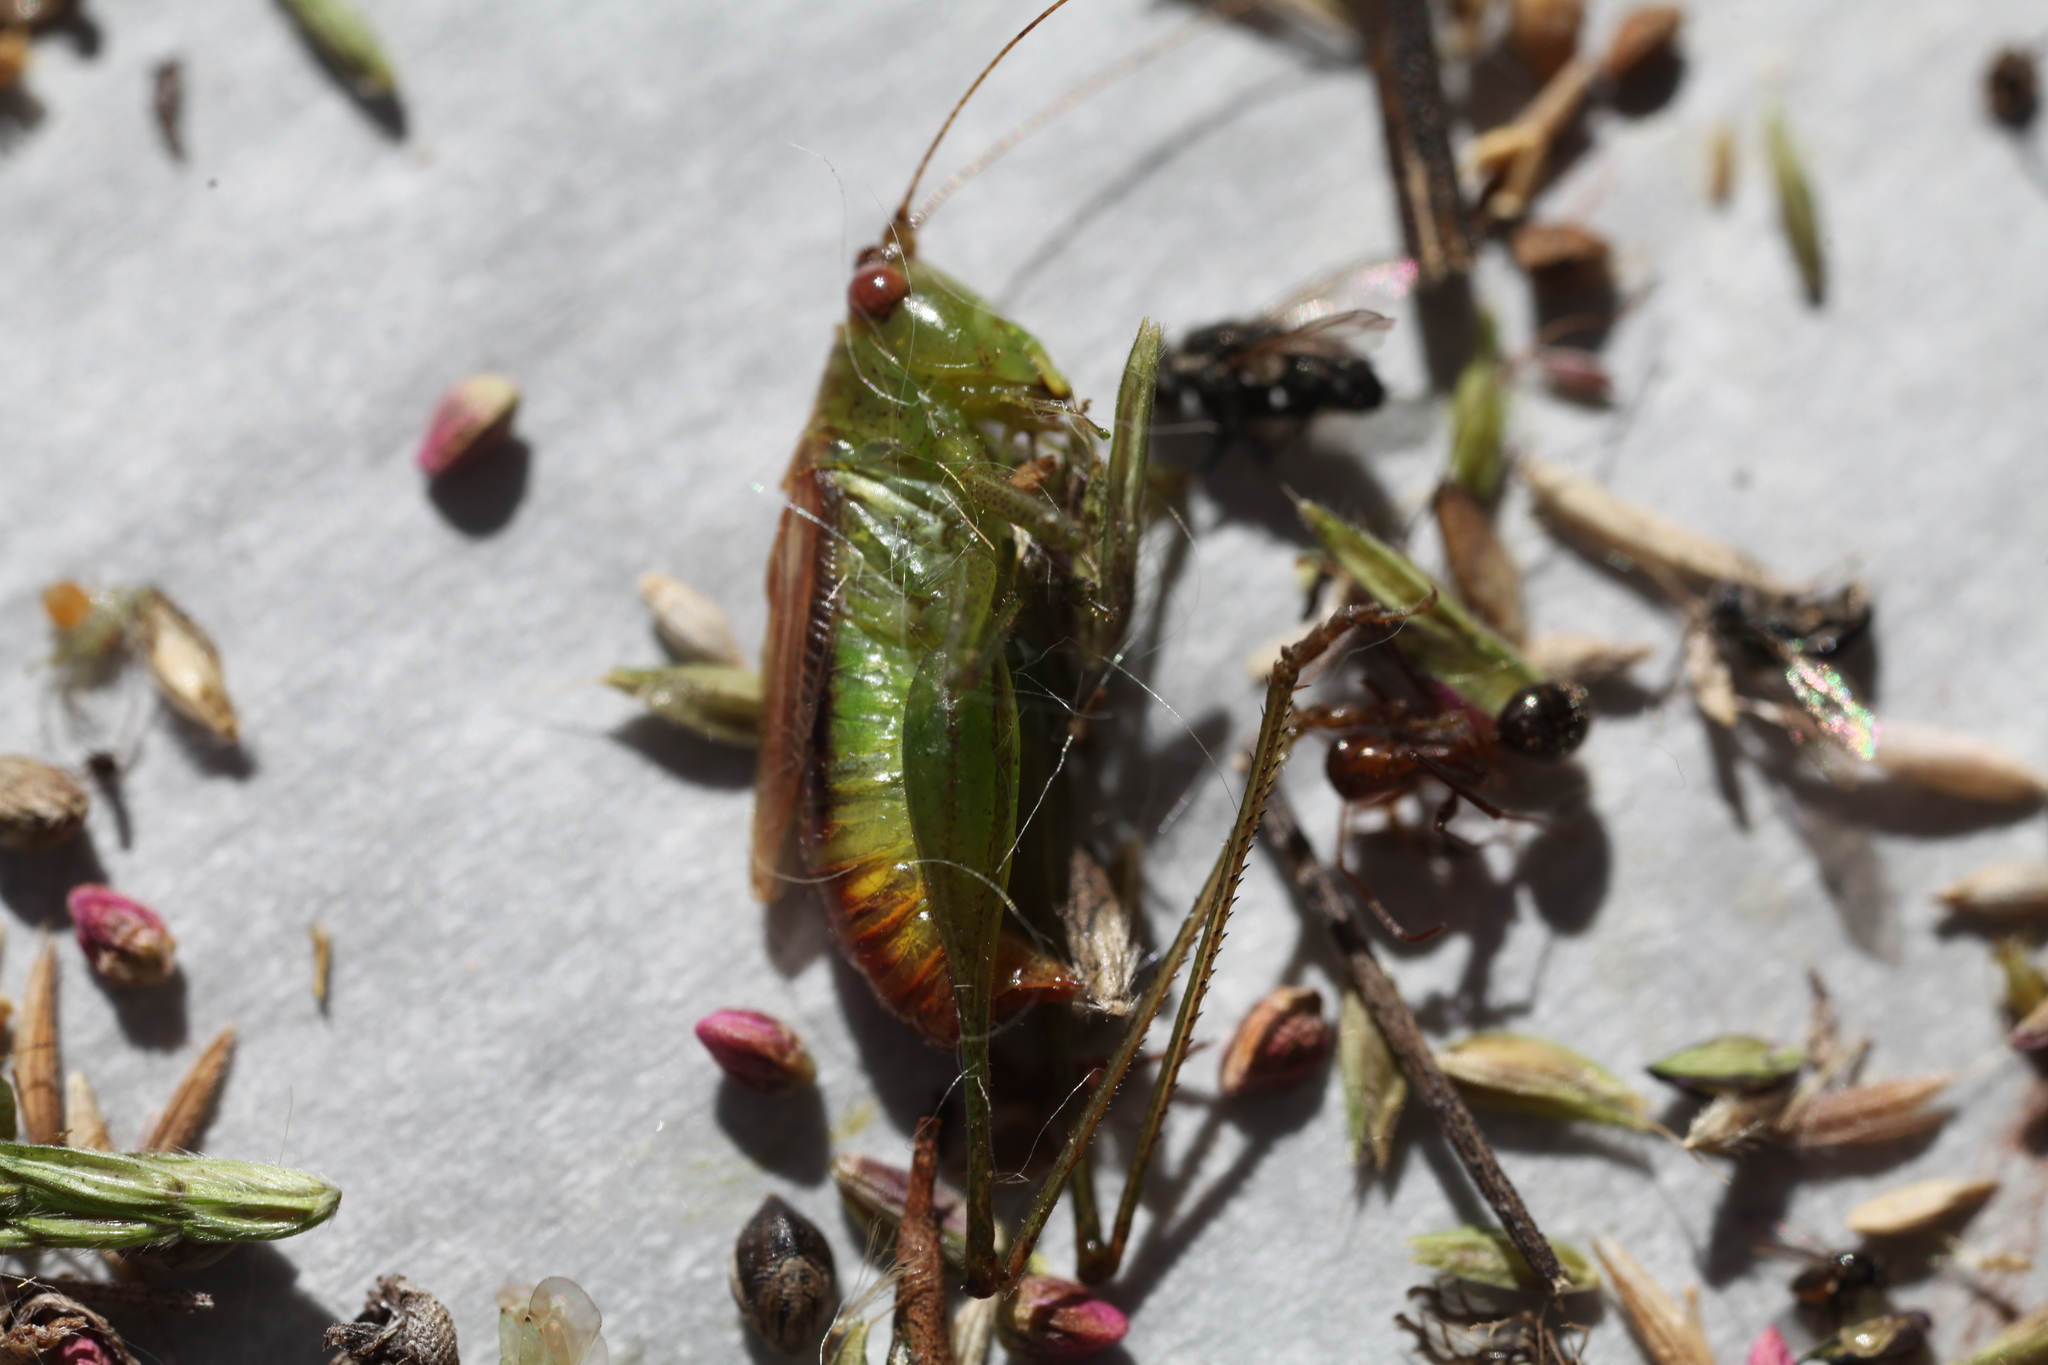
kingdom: Animalia
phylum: Arthropoda
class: Insecta
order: Orthoptera
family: Tettigoniidae
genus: Conocephalus
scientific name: Conocephalus brevipennis
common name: Short-winged meadow katydid
